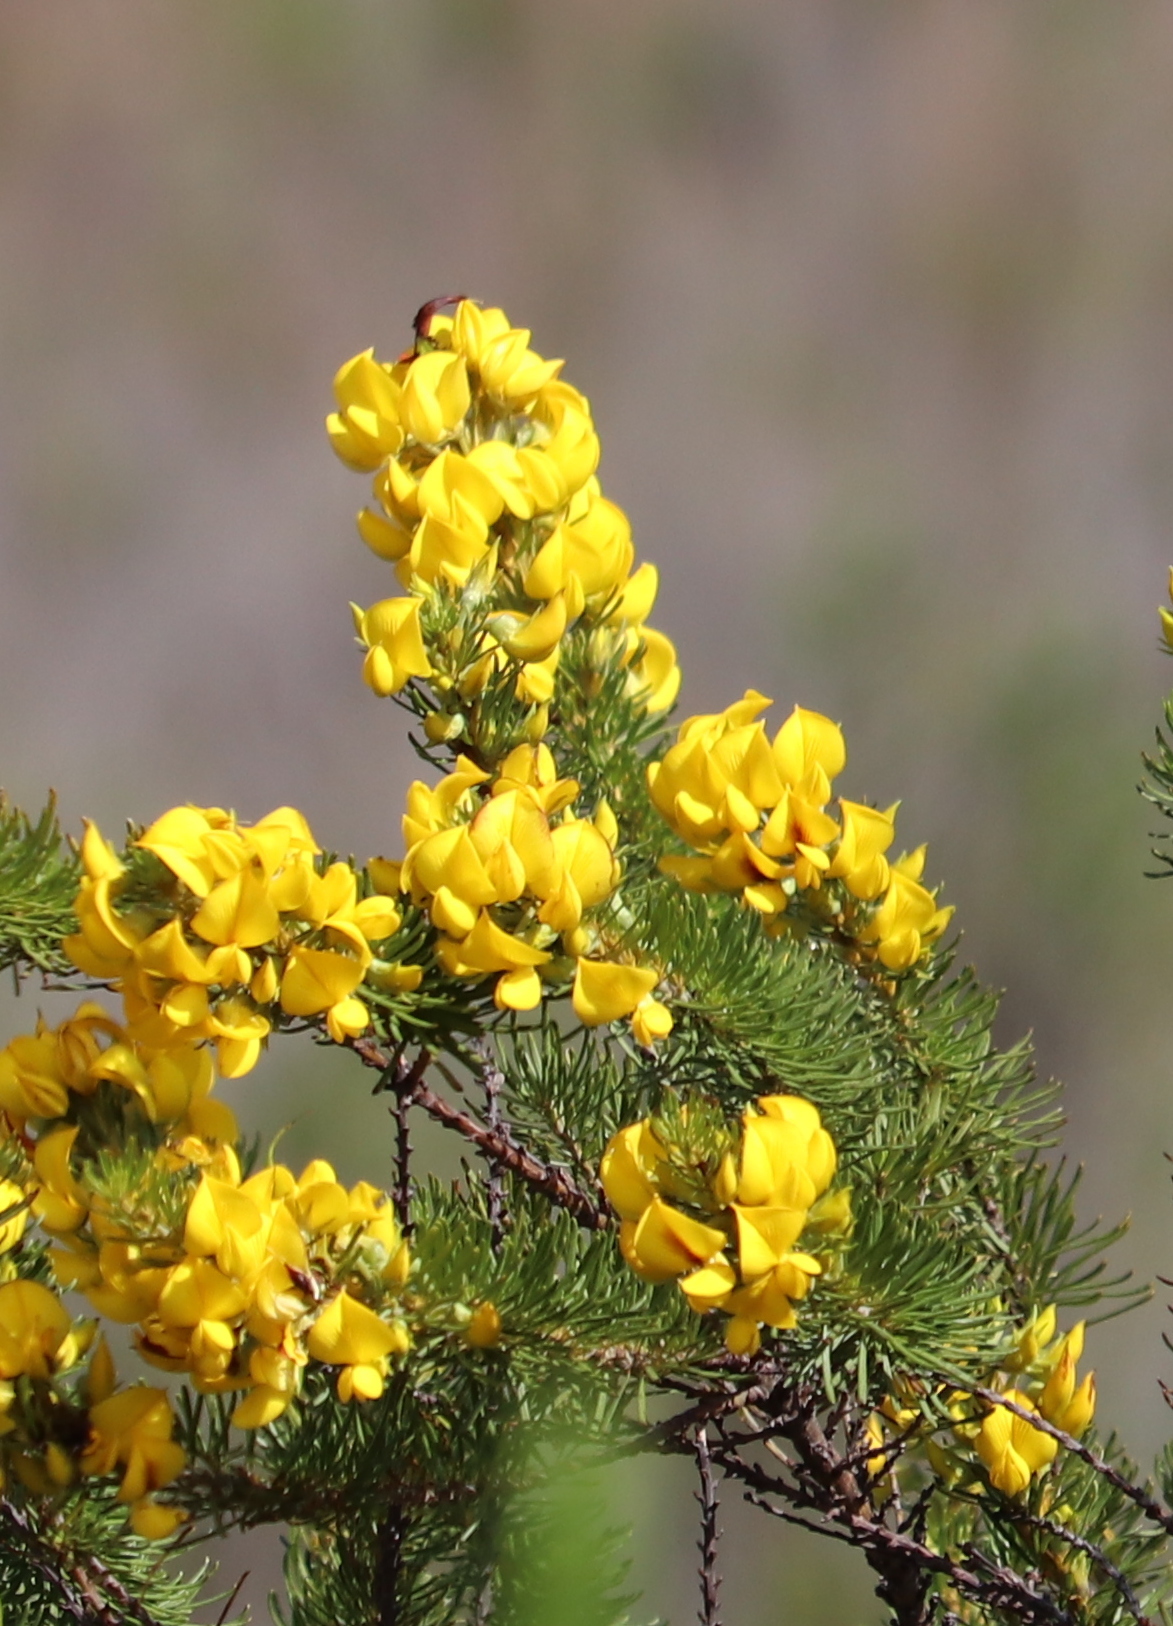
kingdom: Plantae
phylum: Tracheophyta
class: Magnoliopsida
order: Fabales
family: Fabaceae
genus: Cyclopia
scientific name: Cyclopia pubescens
